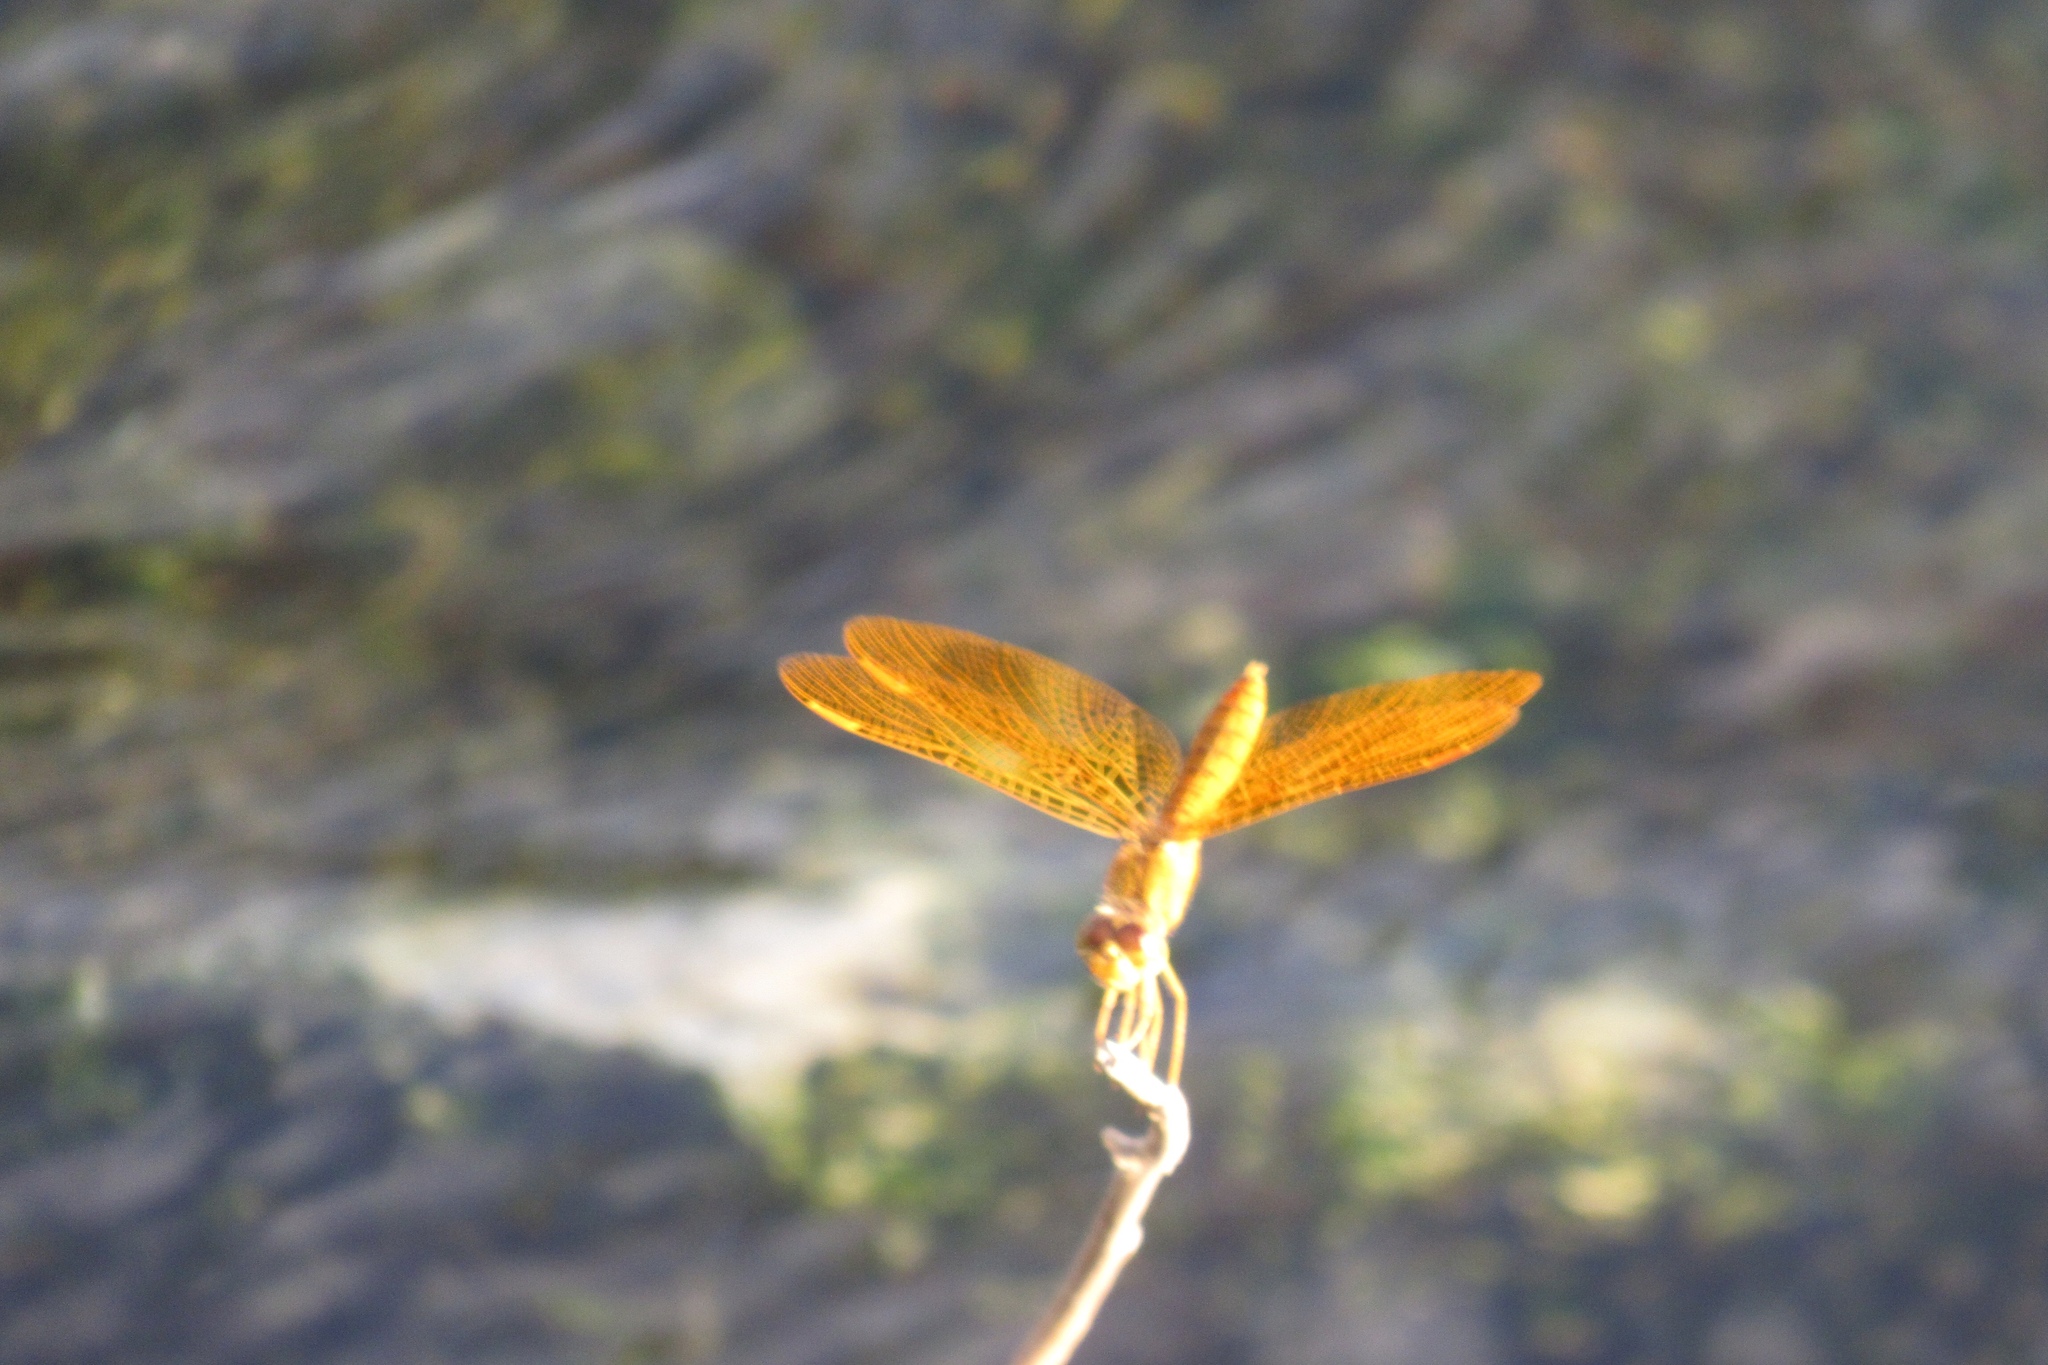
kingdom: Animalia
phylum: Arthropoda
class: Insecta
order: Odonata
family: Libellulidae
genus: Perithemis
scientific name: Perithemis intensa
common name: Mexican amberwing
